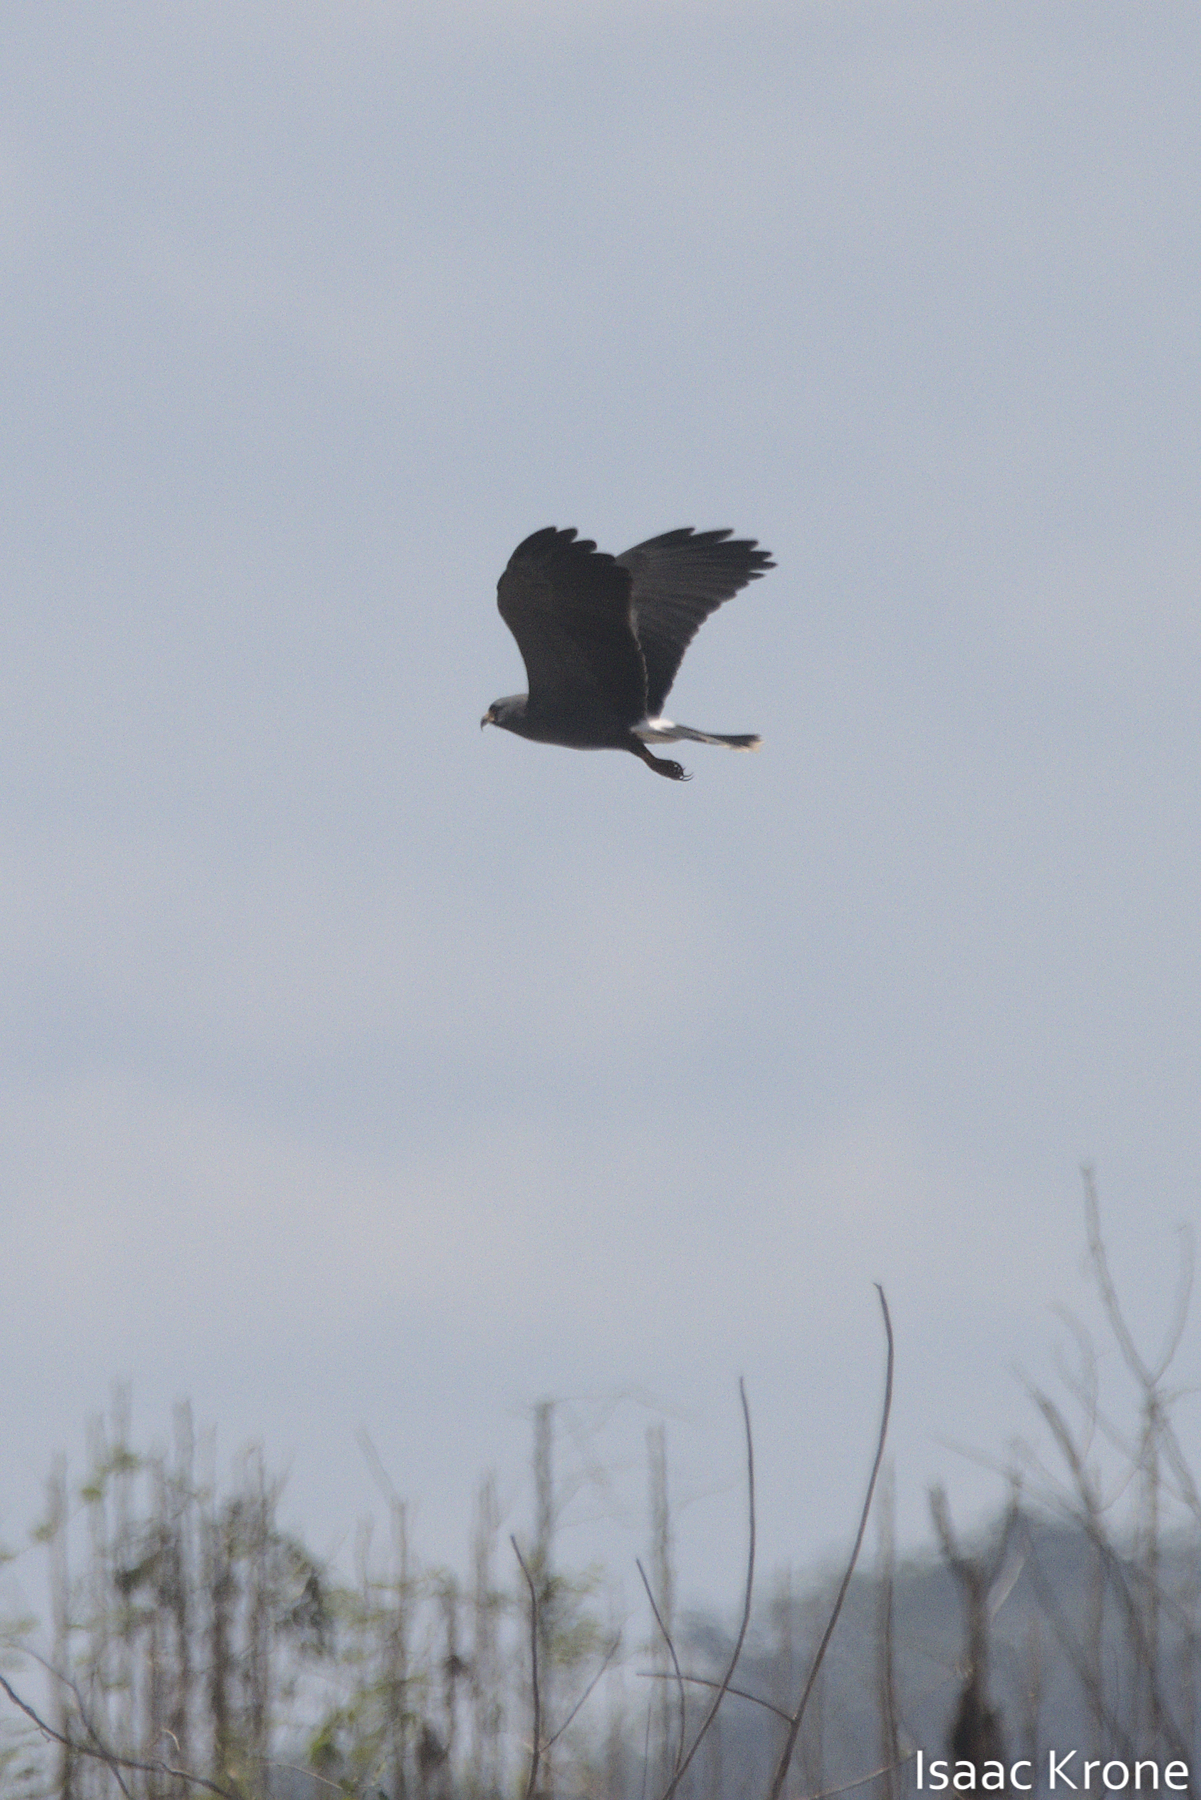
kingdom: Animalia
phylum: Chordata
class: Aves
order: Accipitriformes
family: Accipitridae
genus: Rostrhamus
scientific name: Rostrhamus sociabilis
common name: Snail kite
